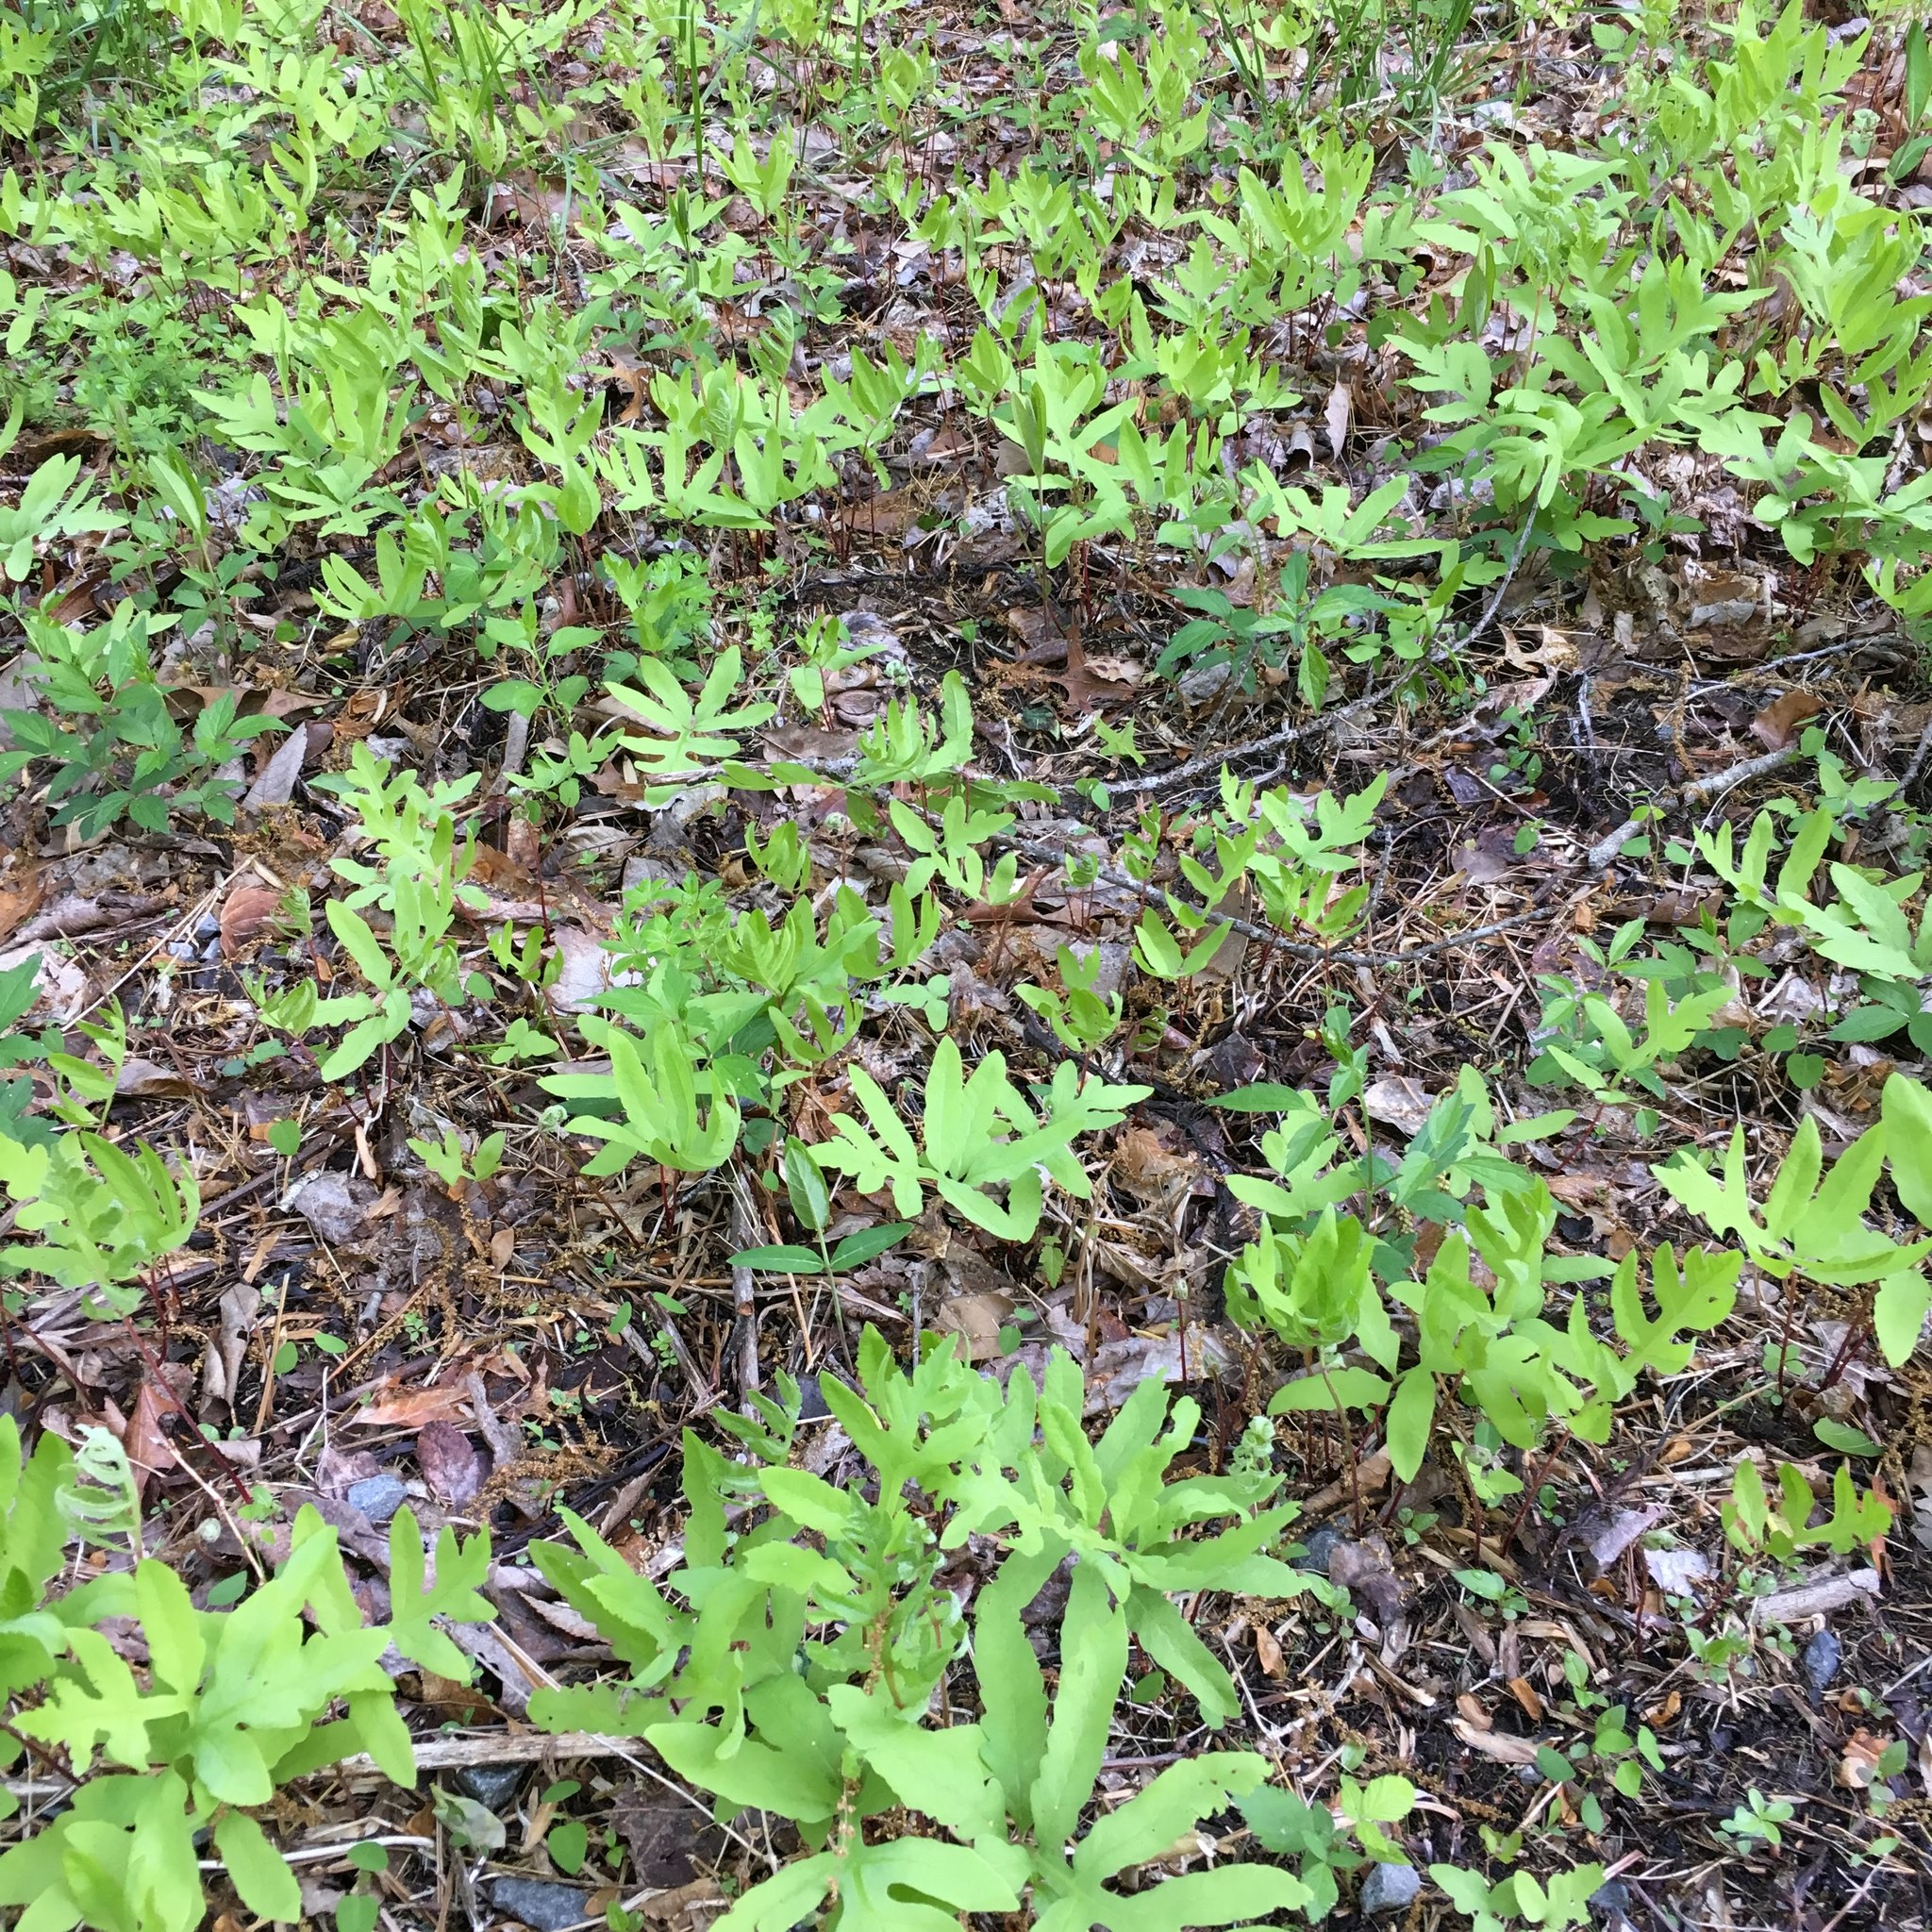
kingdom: Plantae
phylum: Tracheophyta
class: Polypodiopsida
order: Polypodiales
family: Onocleaceae
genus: Onoclea
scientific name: Onoclea sensibilis
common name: Sensitive fern
